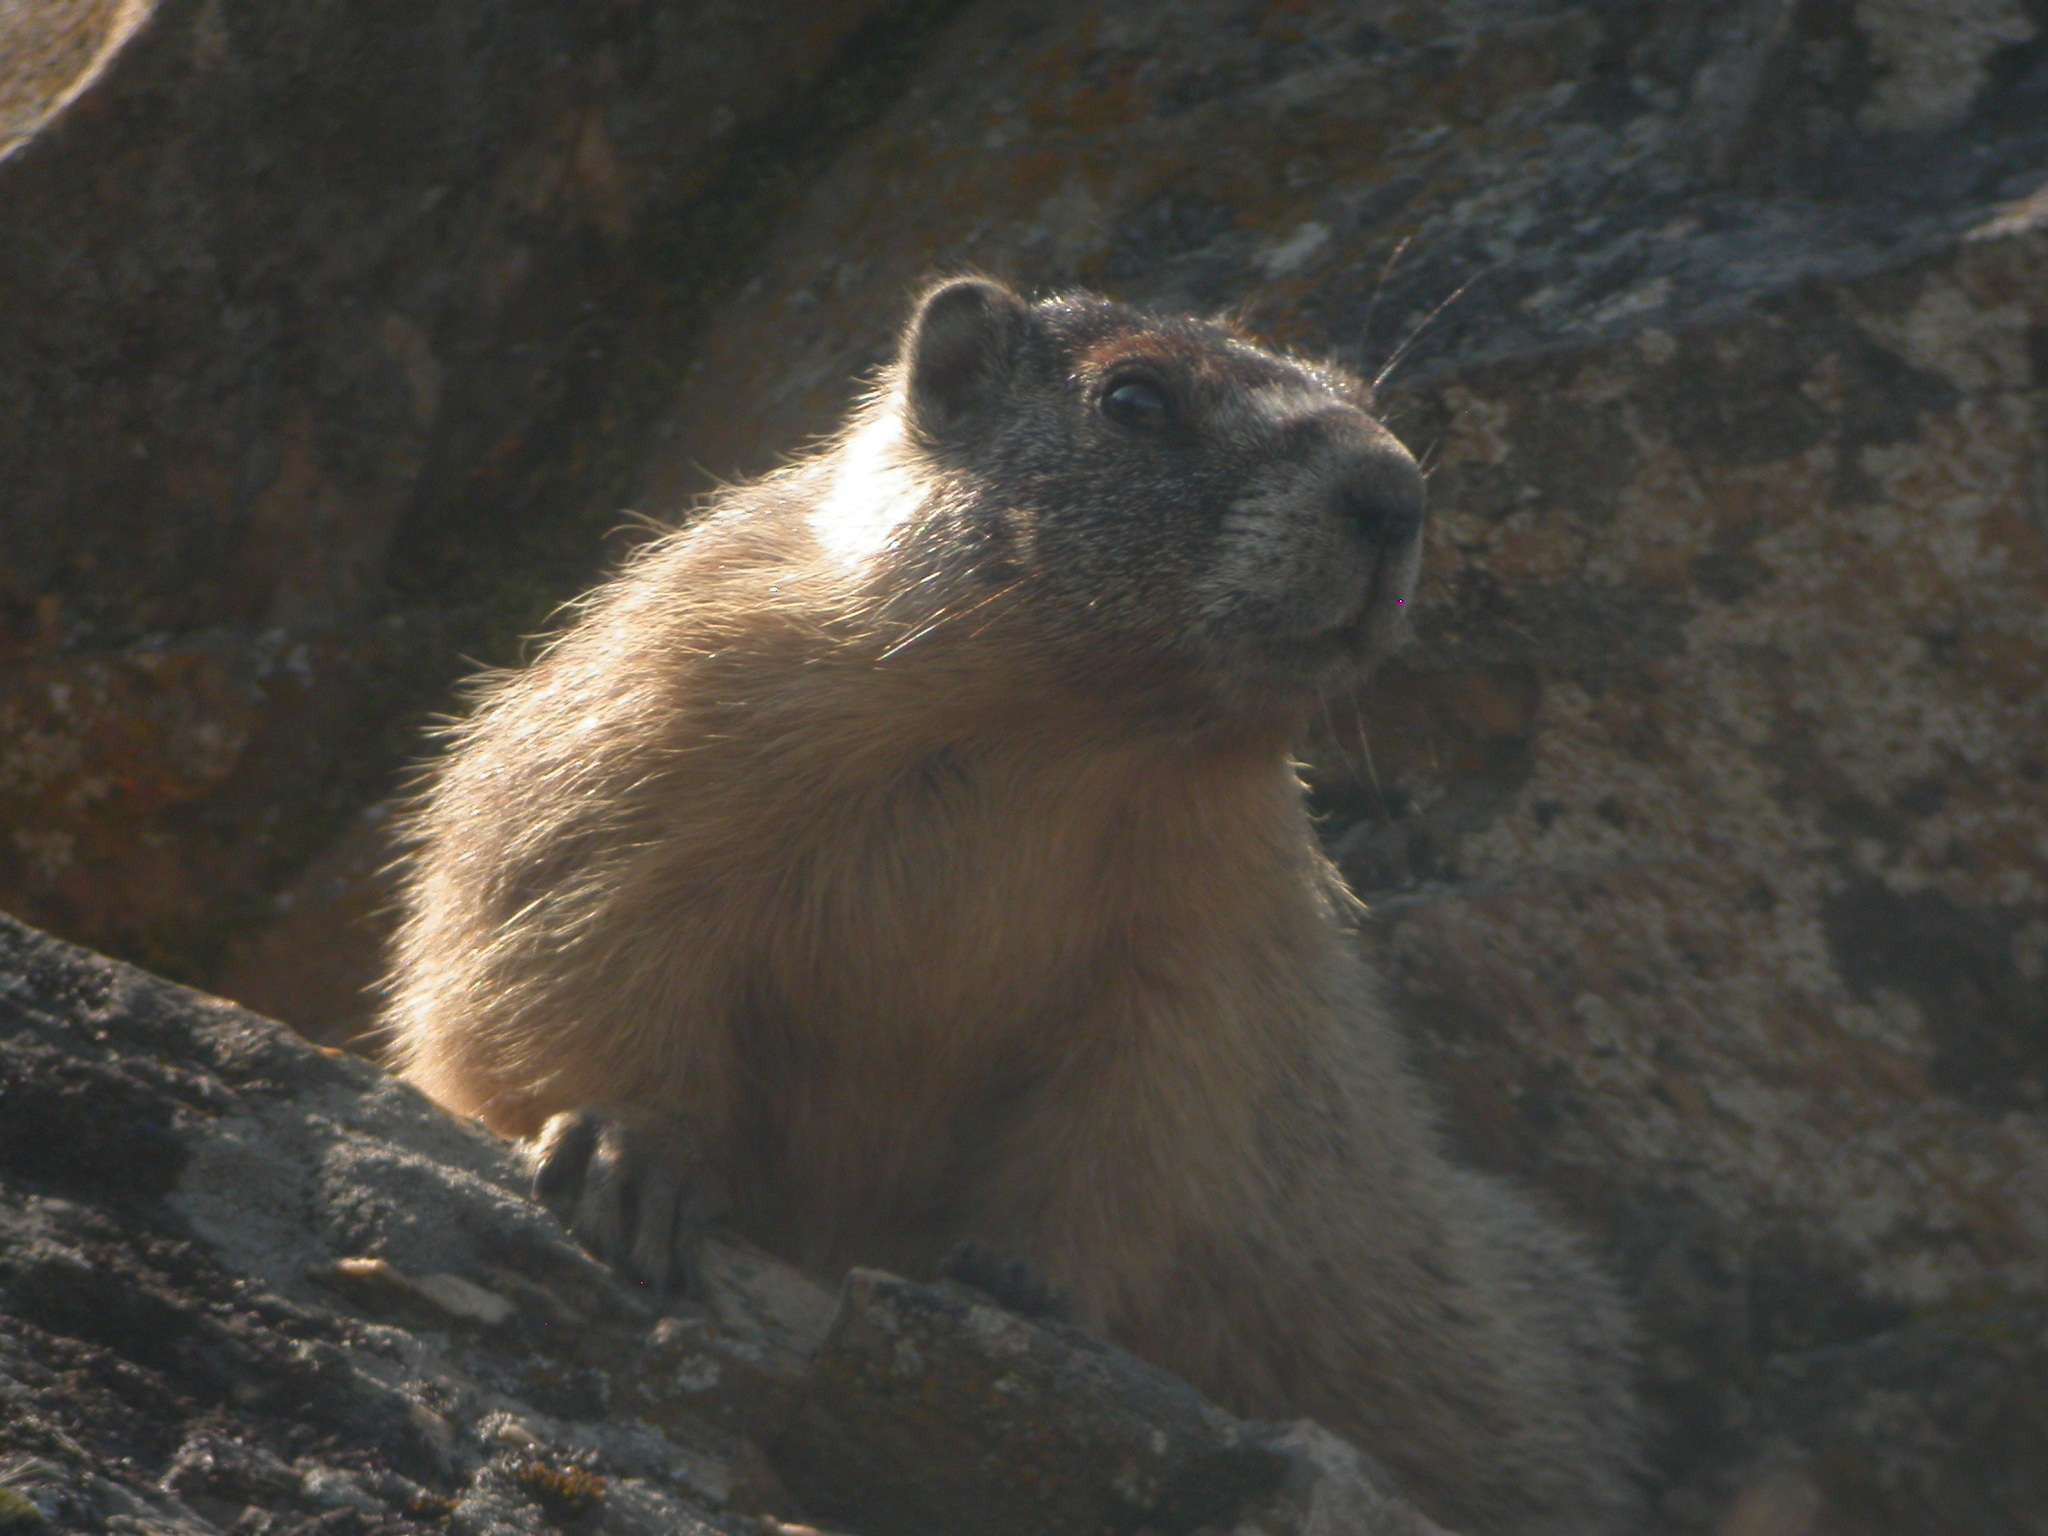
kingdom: Animalia
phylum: Chordata
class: Mammalia
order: Rodentia
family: Sciuridae
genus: Marmota
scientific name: Marmota flaviventris
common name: Yellow-bellied marmot
